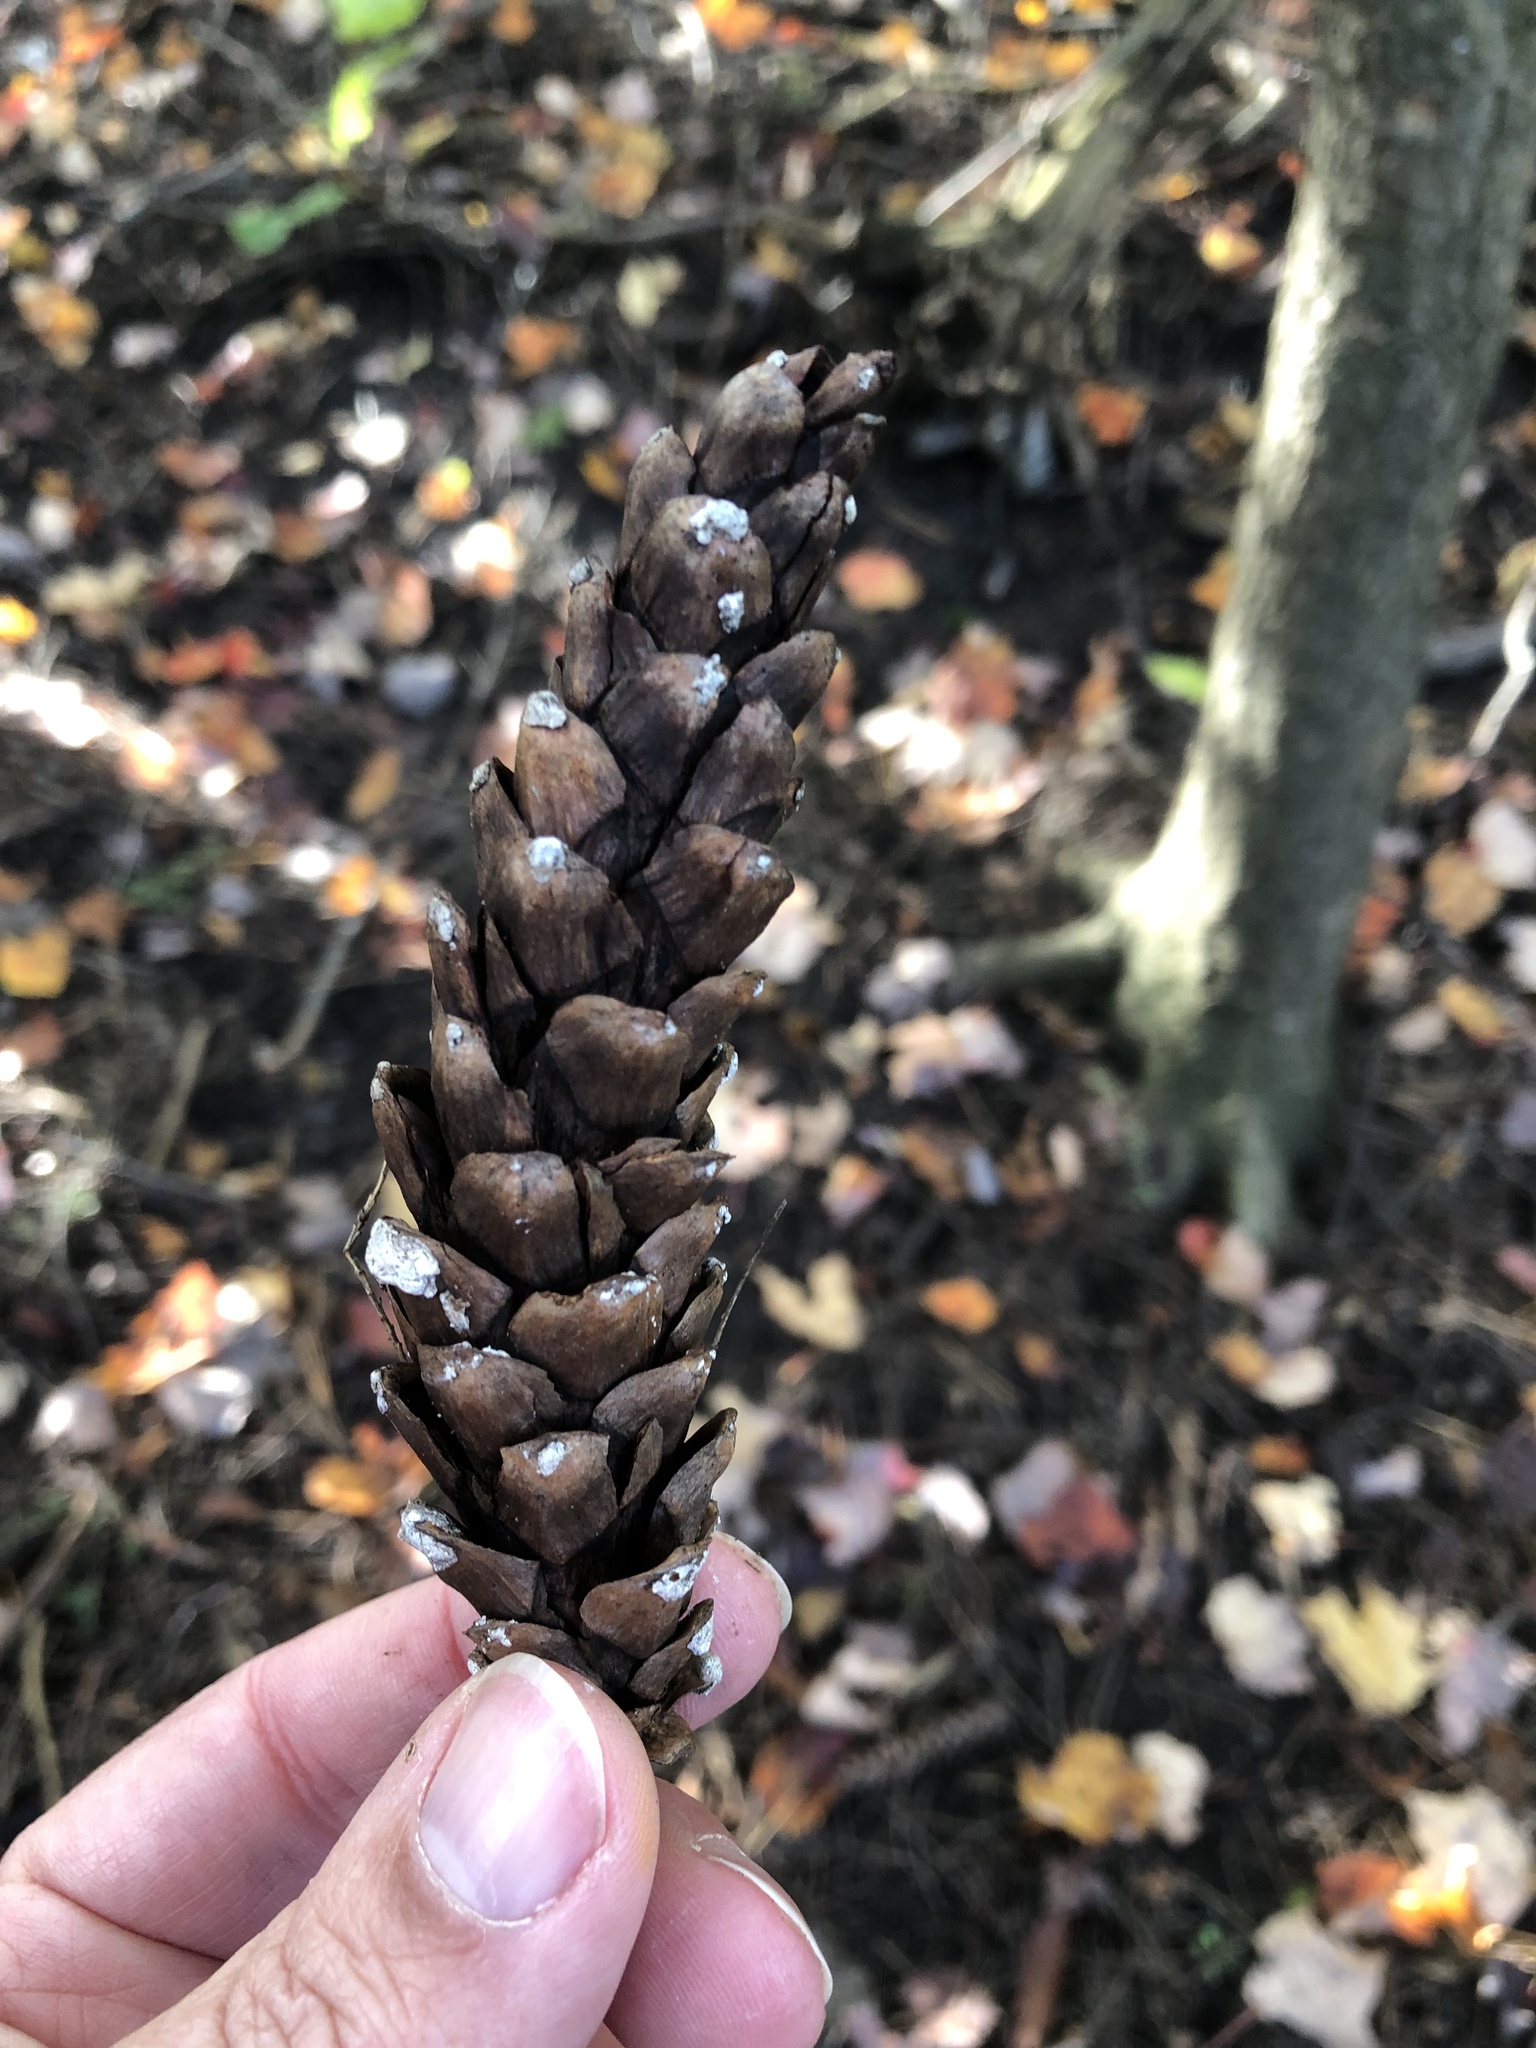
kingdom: Plantae
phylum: Tracheophyta
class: Pinopsida
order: Pinales
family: Pinaceae
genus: Pinus
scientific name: Pinus strobus
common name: Weymouth pine
